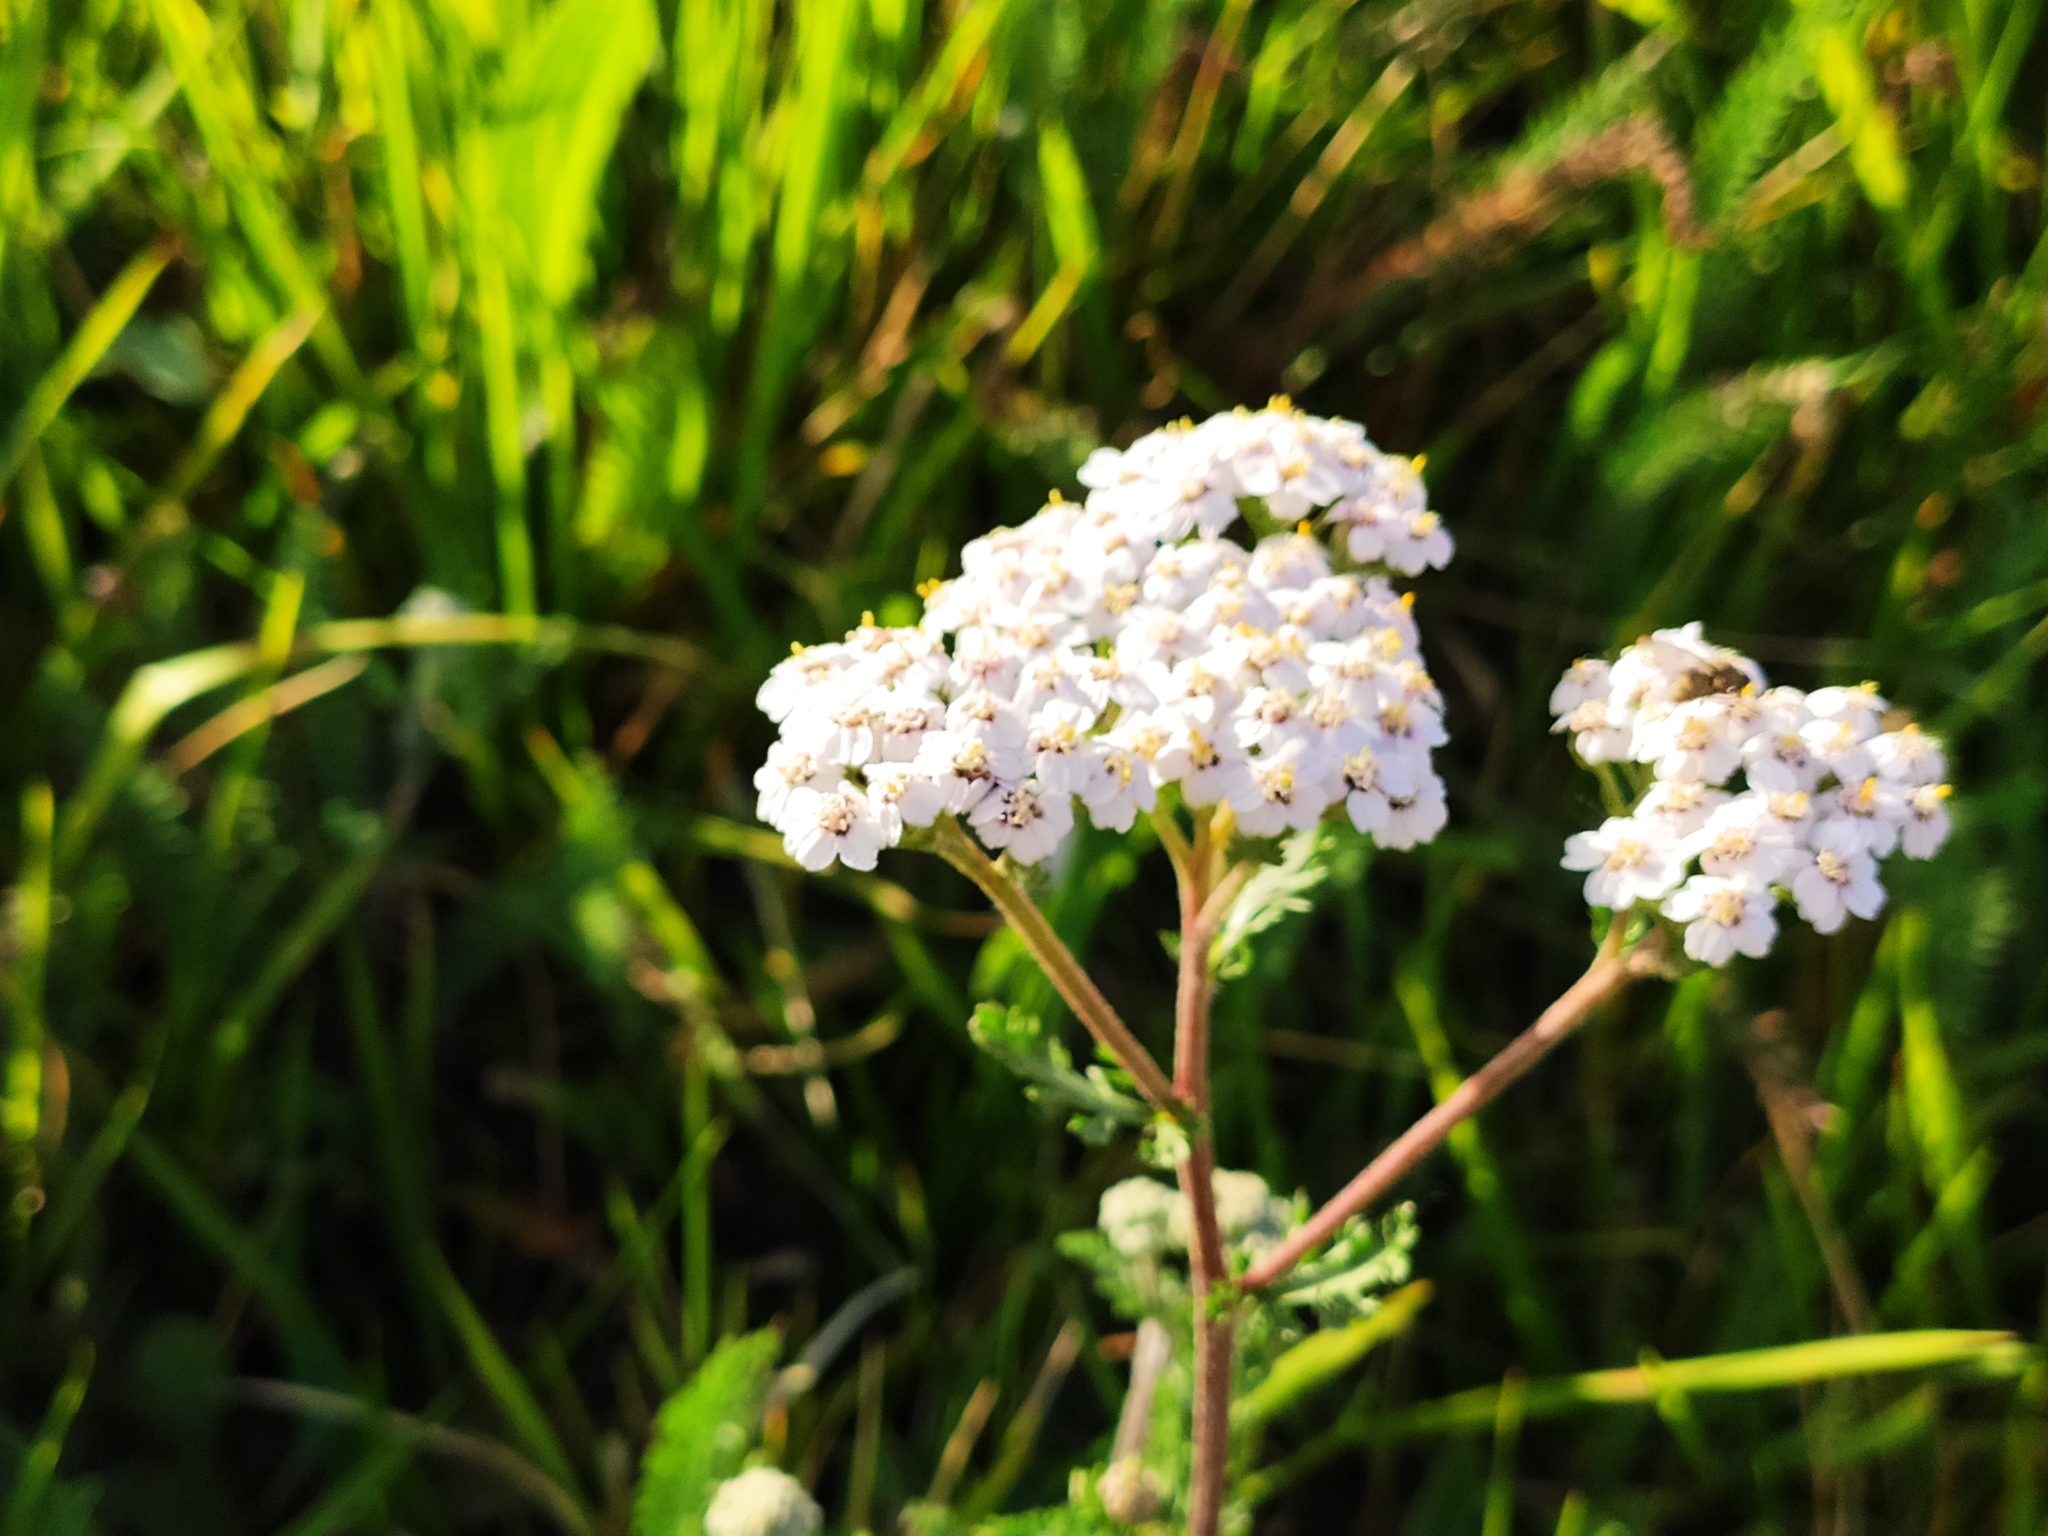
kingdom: Plantae
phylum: Tracheophyta
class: Magnoliopsida
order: Asterales
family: Asteraceae
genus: Achillea
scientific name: Achillea millefolium
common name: Yarrow
